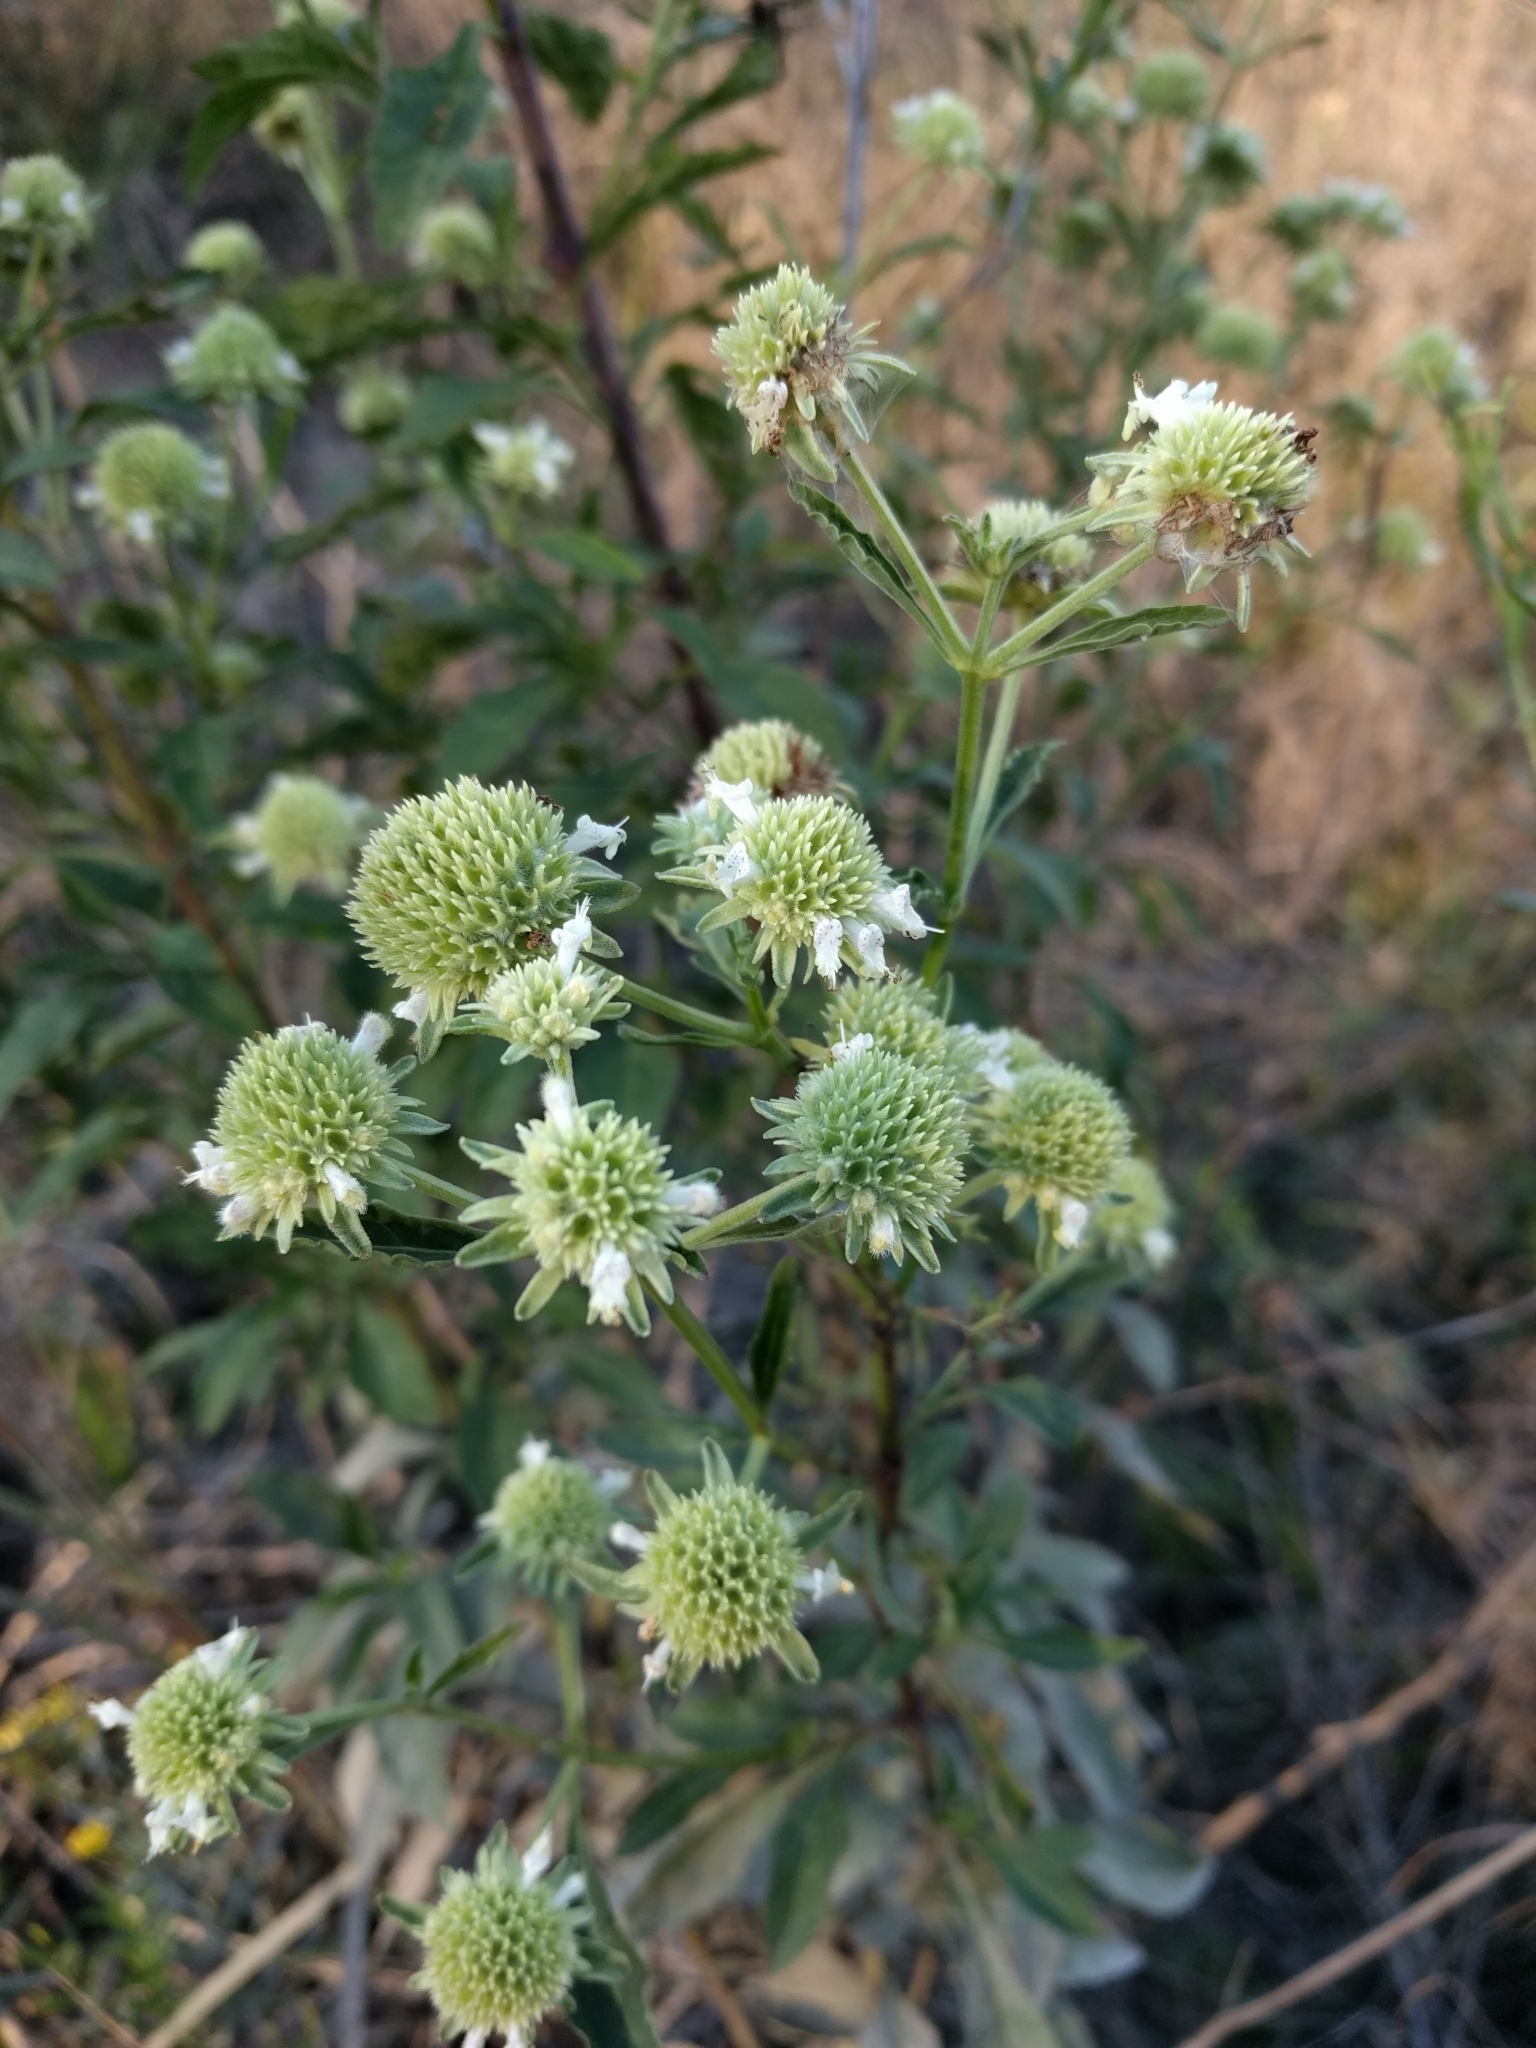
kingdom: Plantae
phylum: Tracheophyta
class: Magnoliopsida
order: Lamiales
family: Lamiaceae
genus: Hyptis
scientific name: Hyptis alata
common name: Cluster bush-mint
